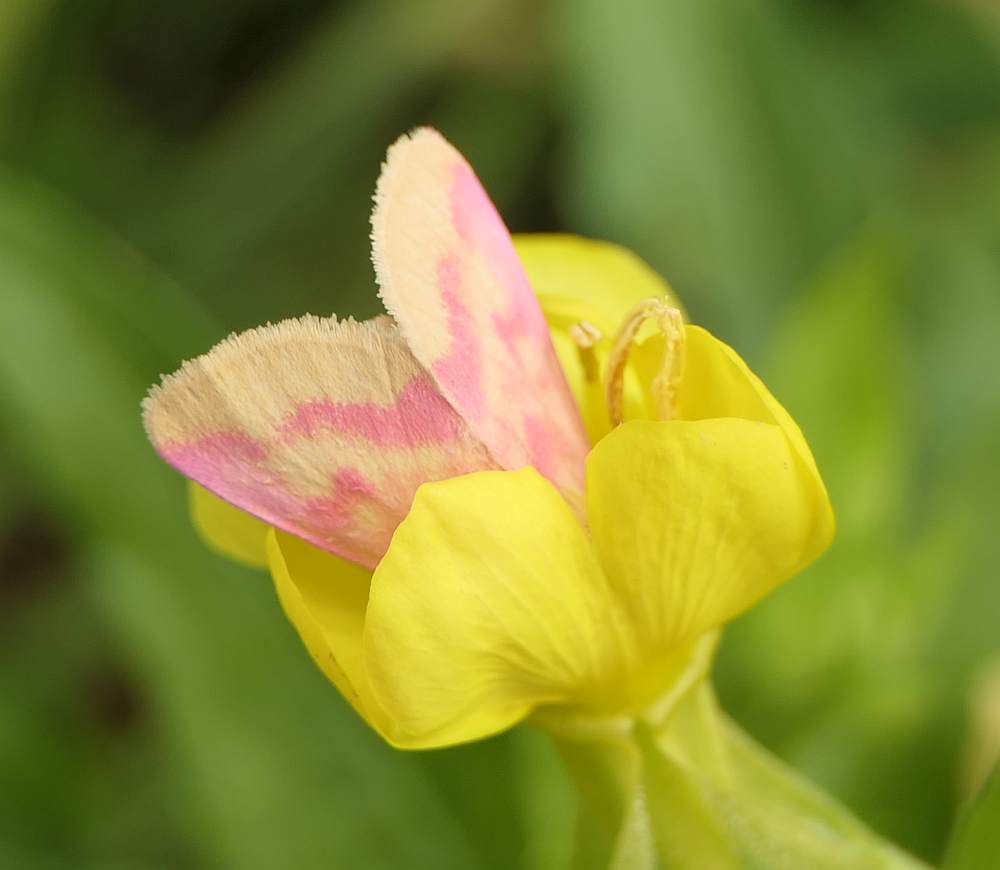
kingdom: Animalia
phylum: Arthropoda
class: Insecta
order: Lepidoptera
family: Noctuidae
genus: Schinia
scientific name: Schinia florida
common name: Primrose moth
